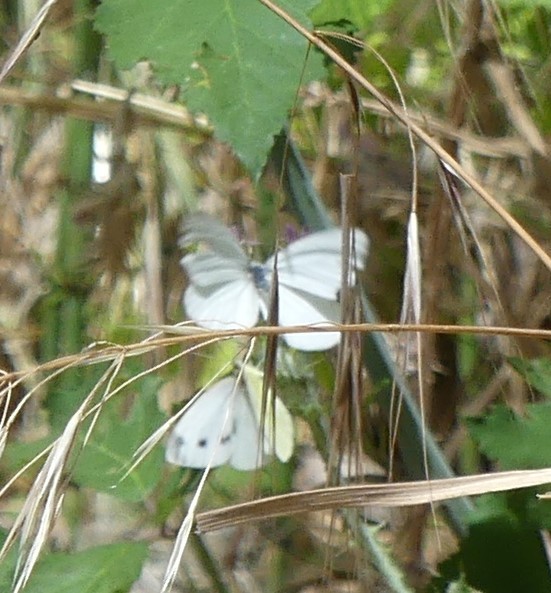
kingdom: Animalia
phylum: Arthropoda
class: Insecta
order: Lepidoptera
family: Pieridae
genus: Pieris
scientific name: Pieris rapae
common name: Small white
